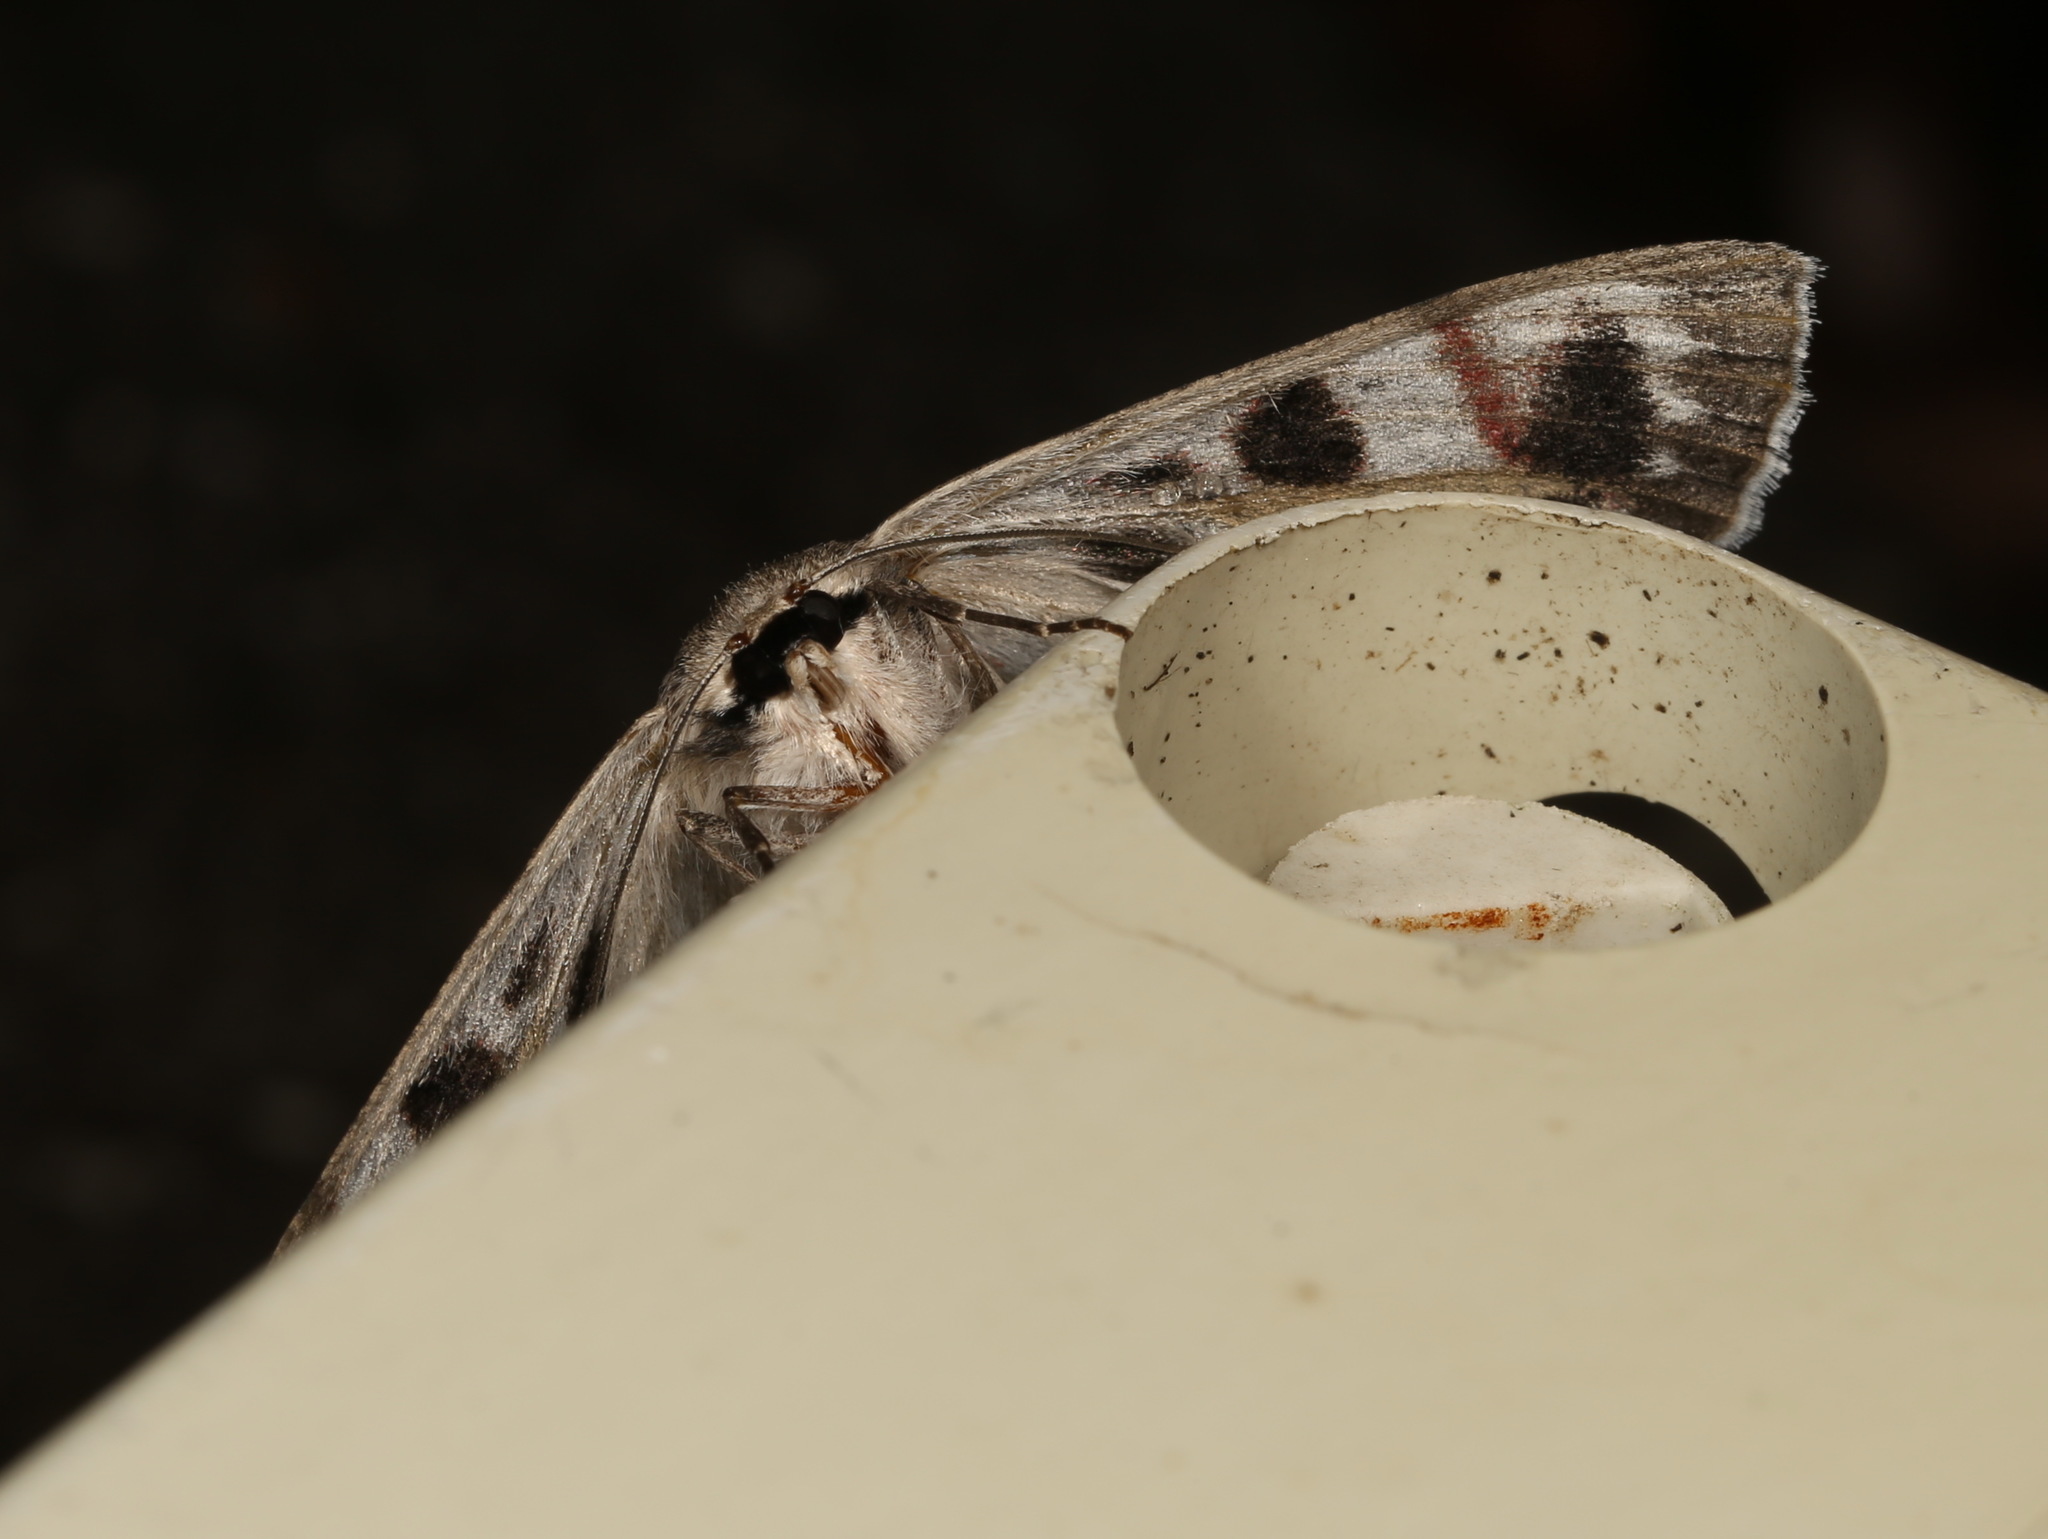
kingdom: Animalia
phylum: Arthropoda
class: Insecta
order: Lepidoptera
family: Geometridae
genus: Crypsiphona
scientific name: Crypsiphona ocultaria
